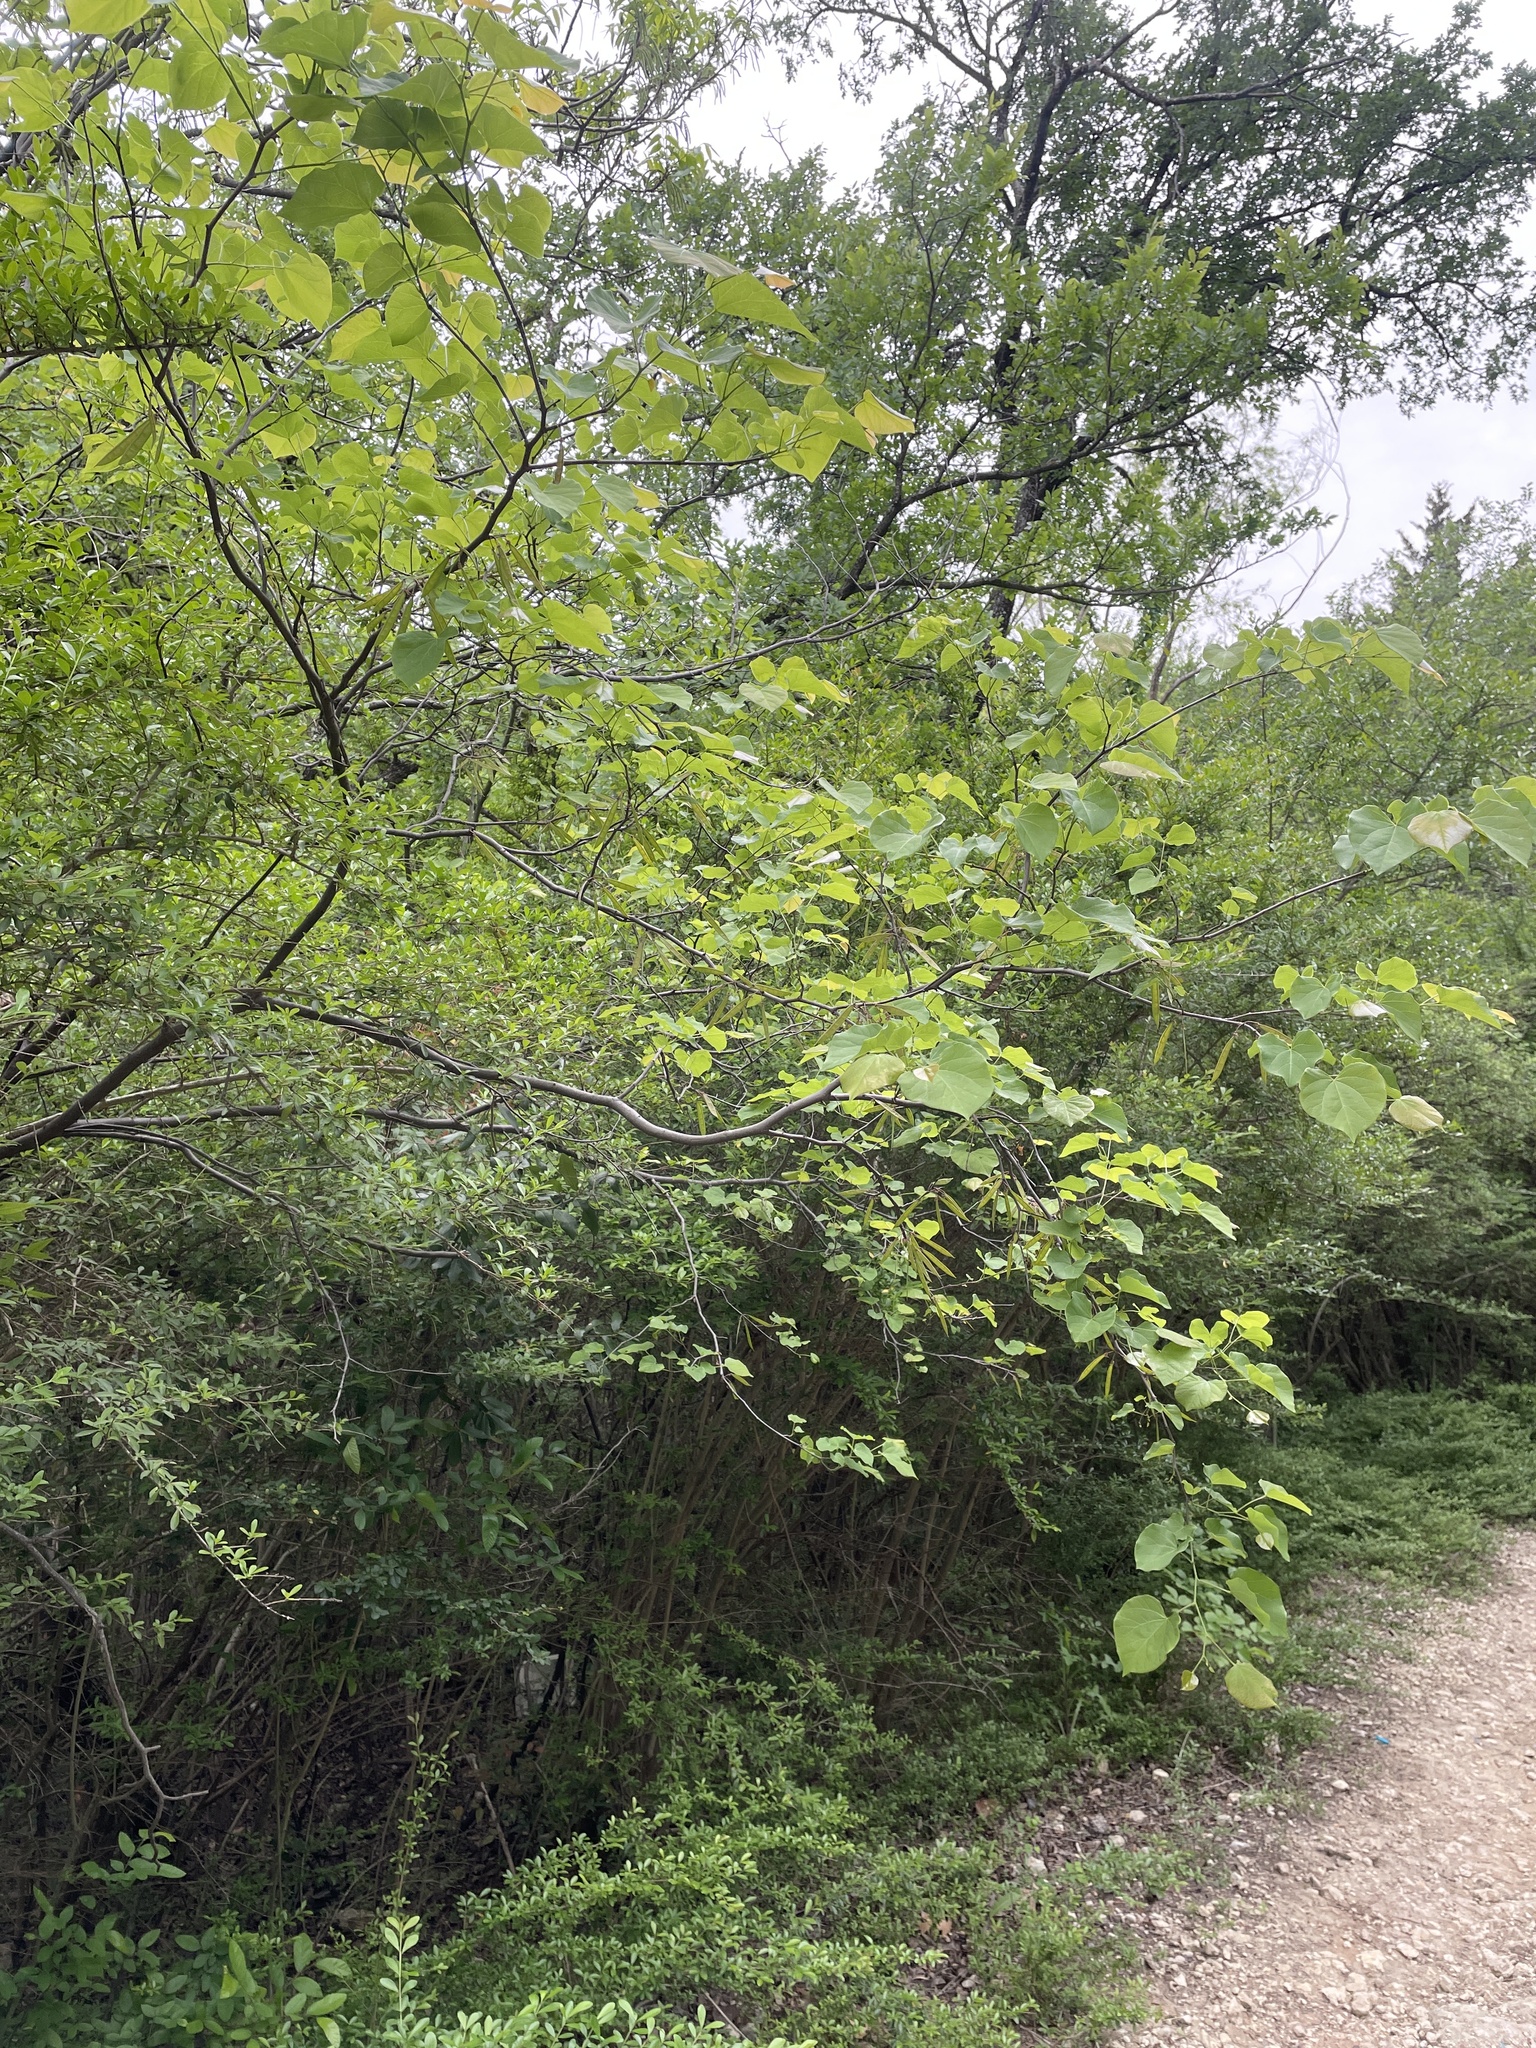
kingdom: Plantae
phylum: Tracheophyta
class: Magnoliopsida
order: Fabales
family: Fabaceae
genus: Cercis
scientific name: Cercis canadensis
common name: Eastern redbud
